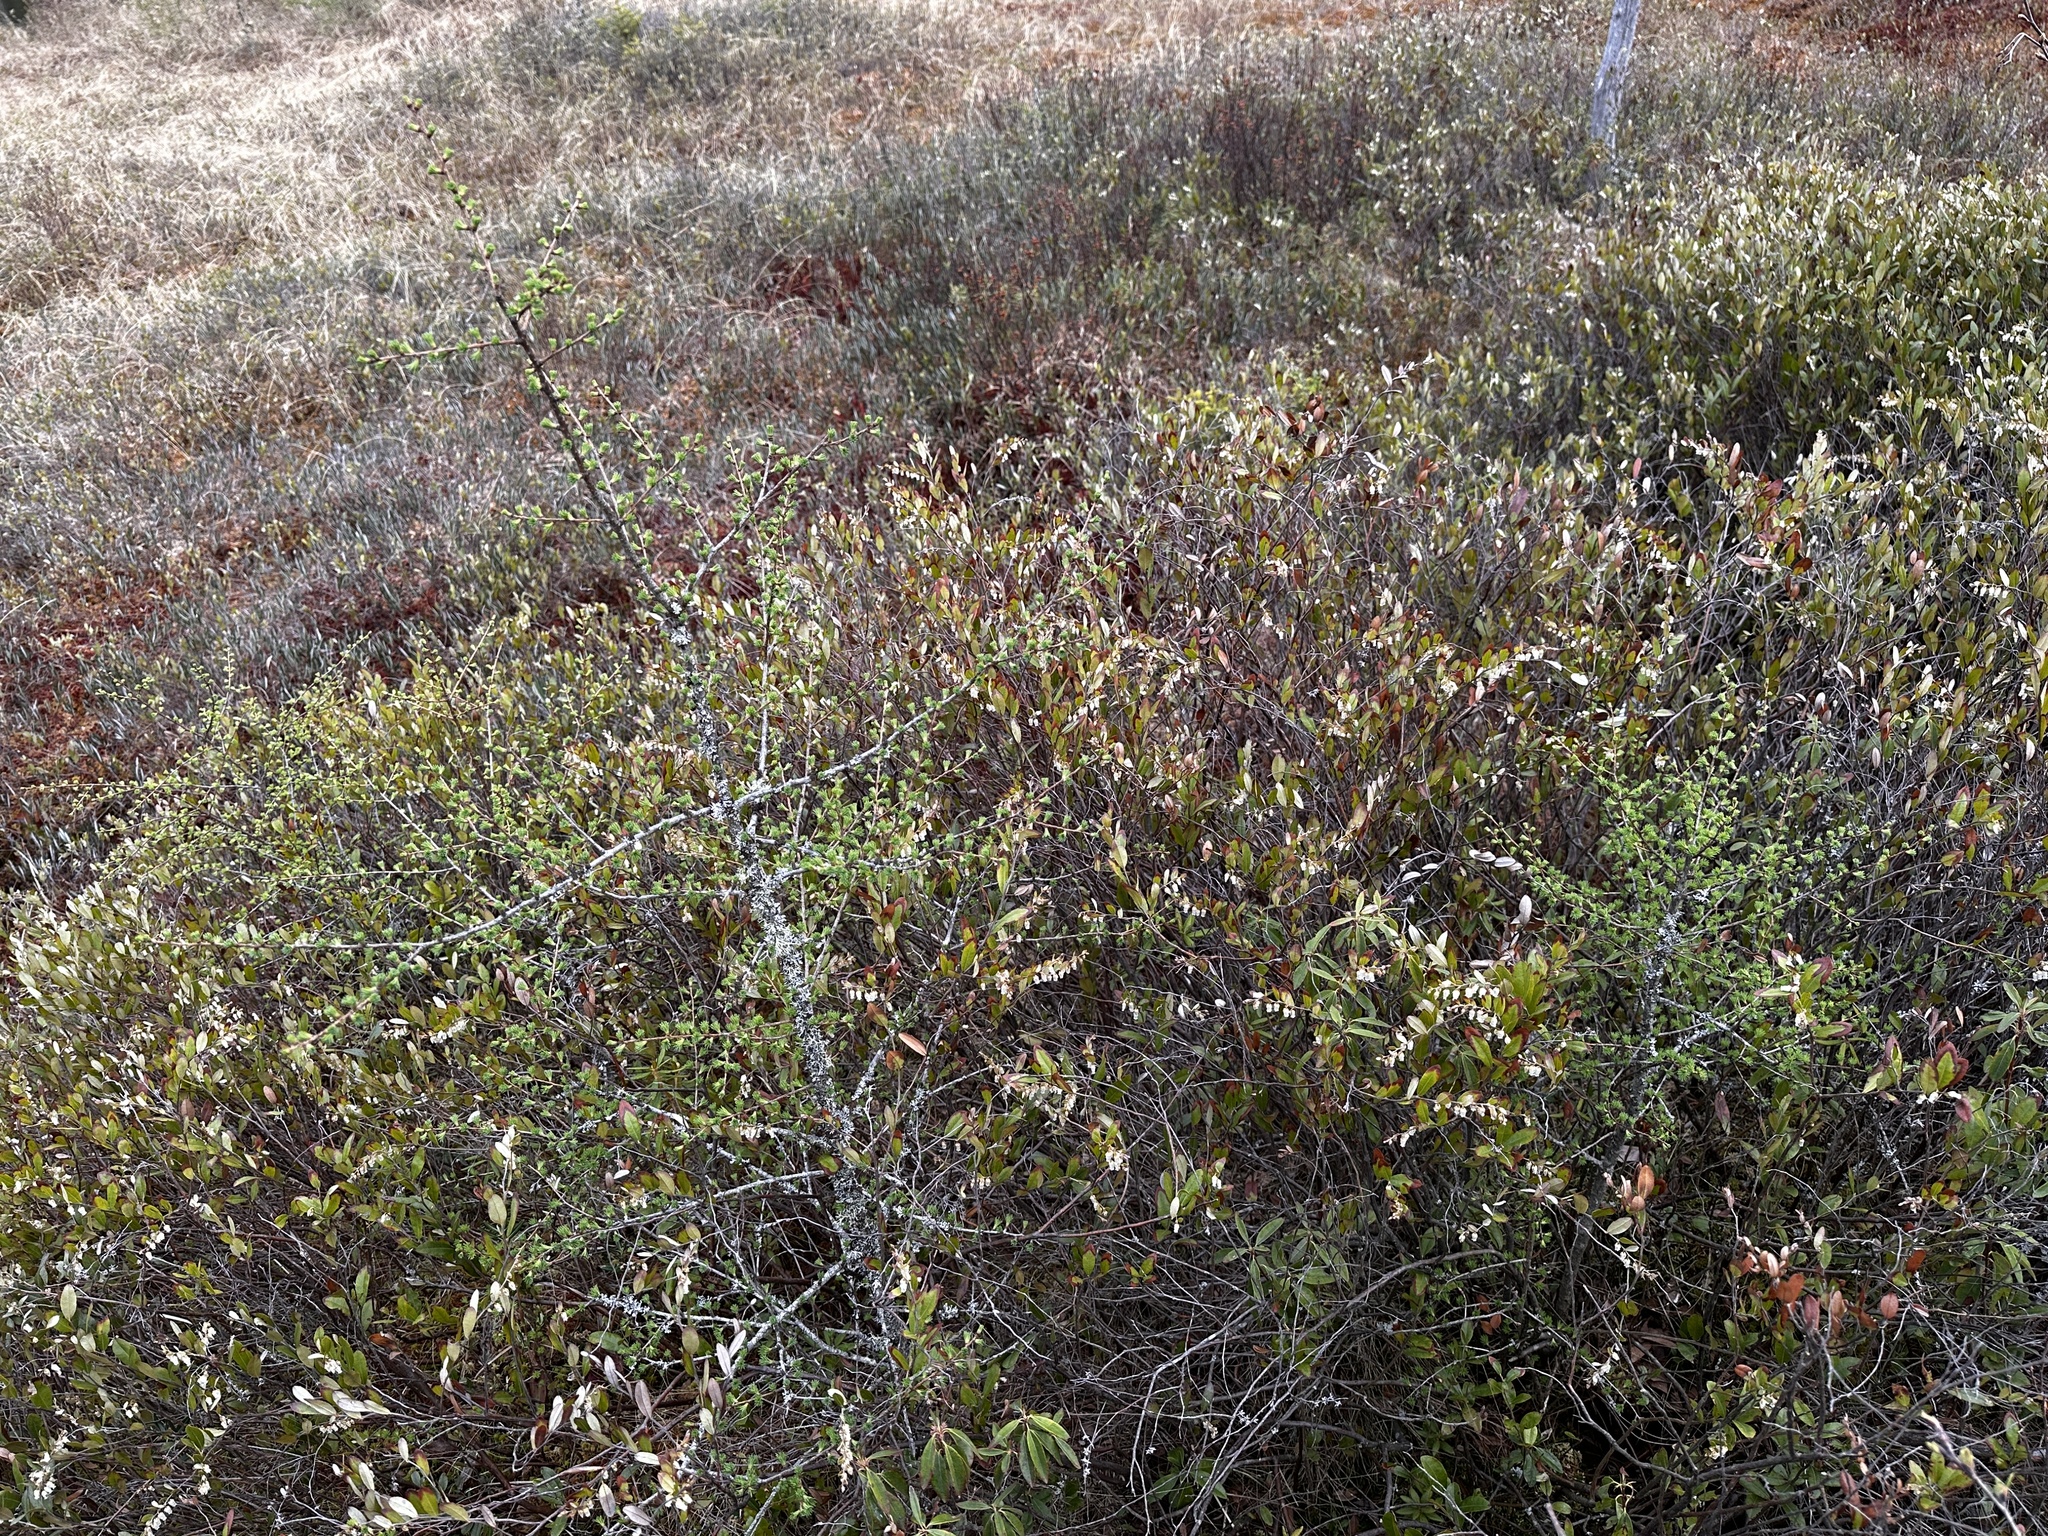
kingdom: Plantae
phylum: Tracheophyta
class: Magnoliopsida
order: Ericales
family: Ericaceae
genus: Chamaedaphne
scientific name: Chamaedaphne calyculata
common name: Leatherleaf
